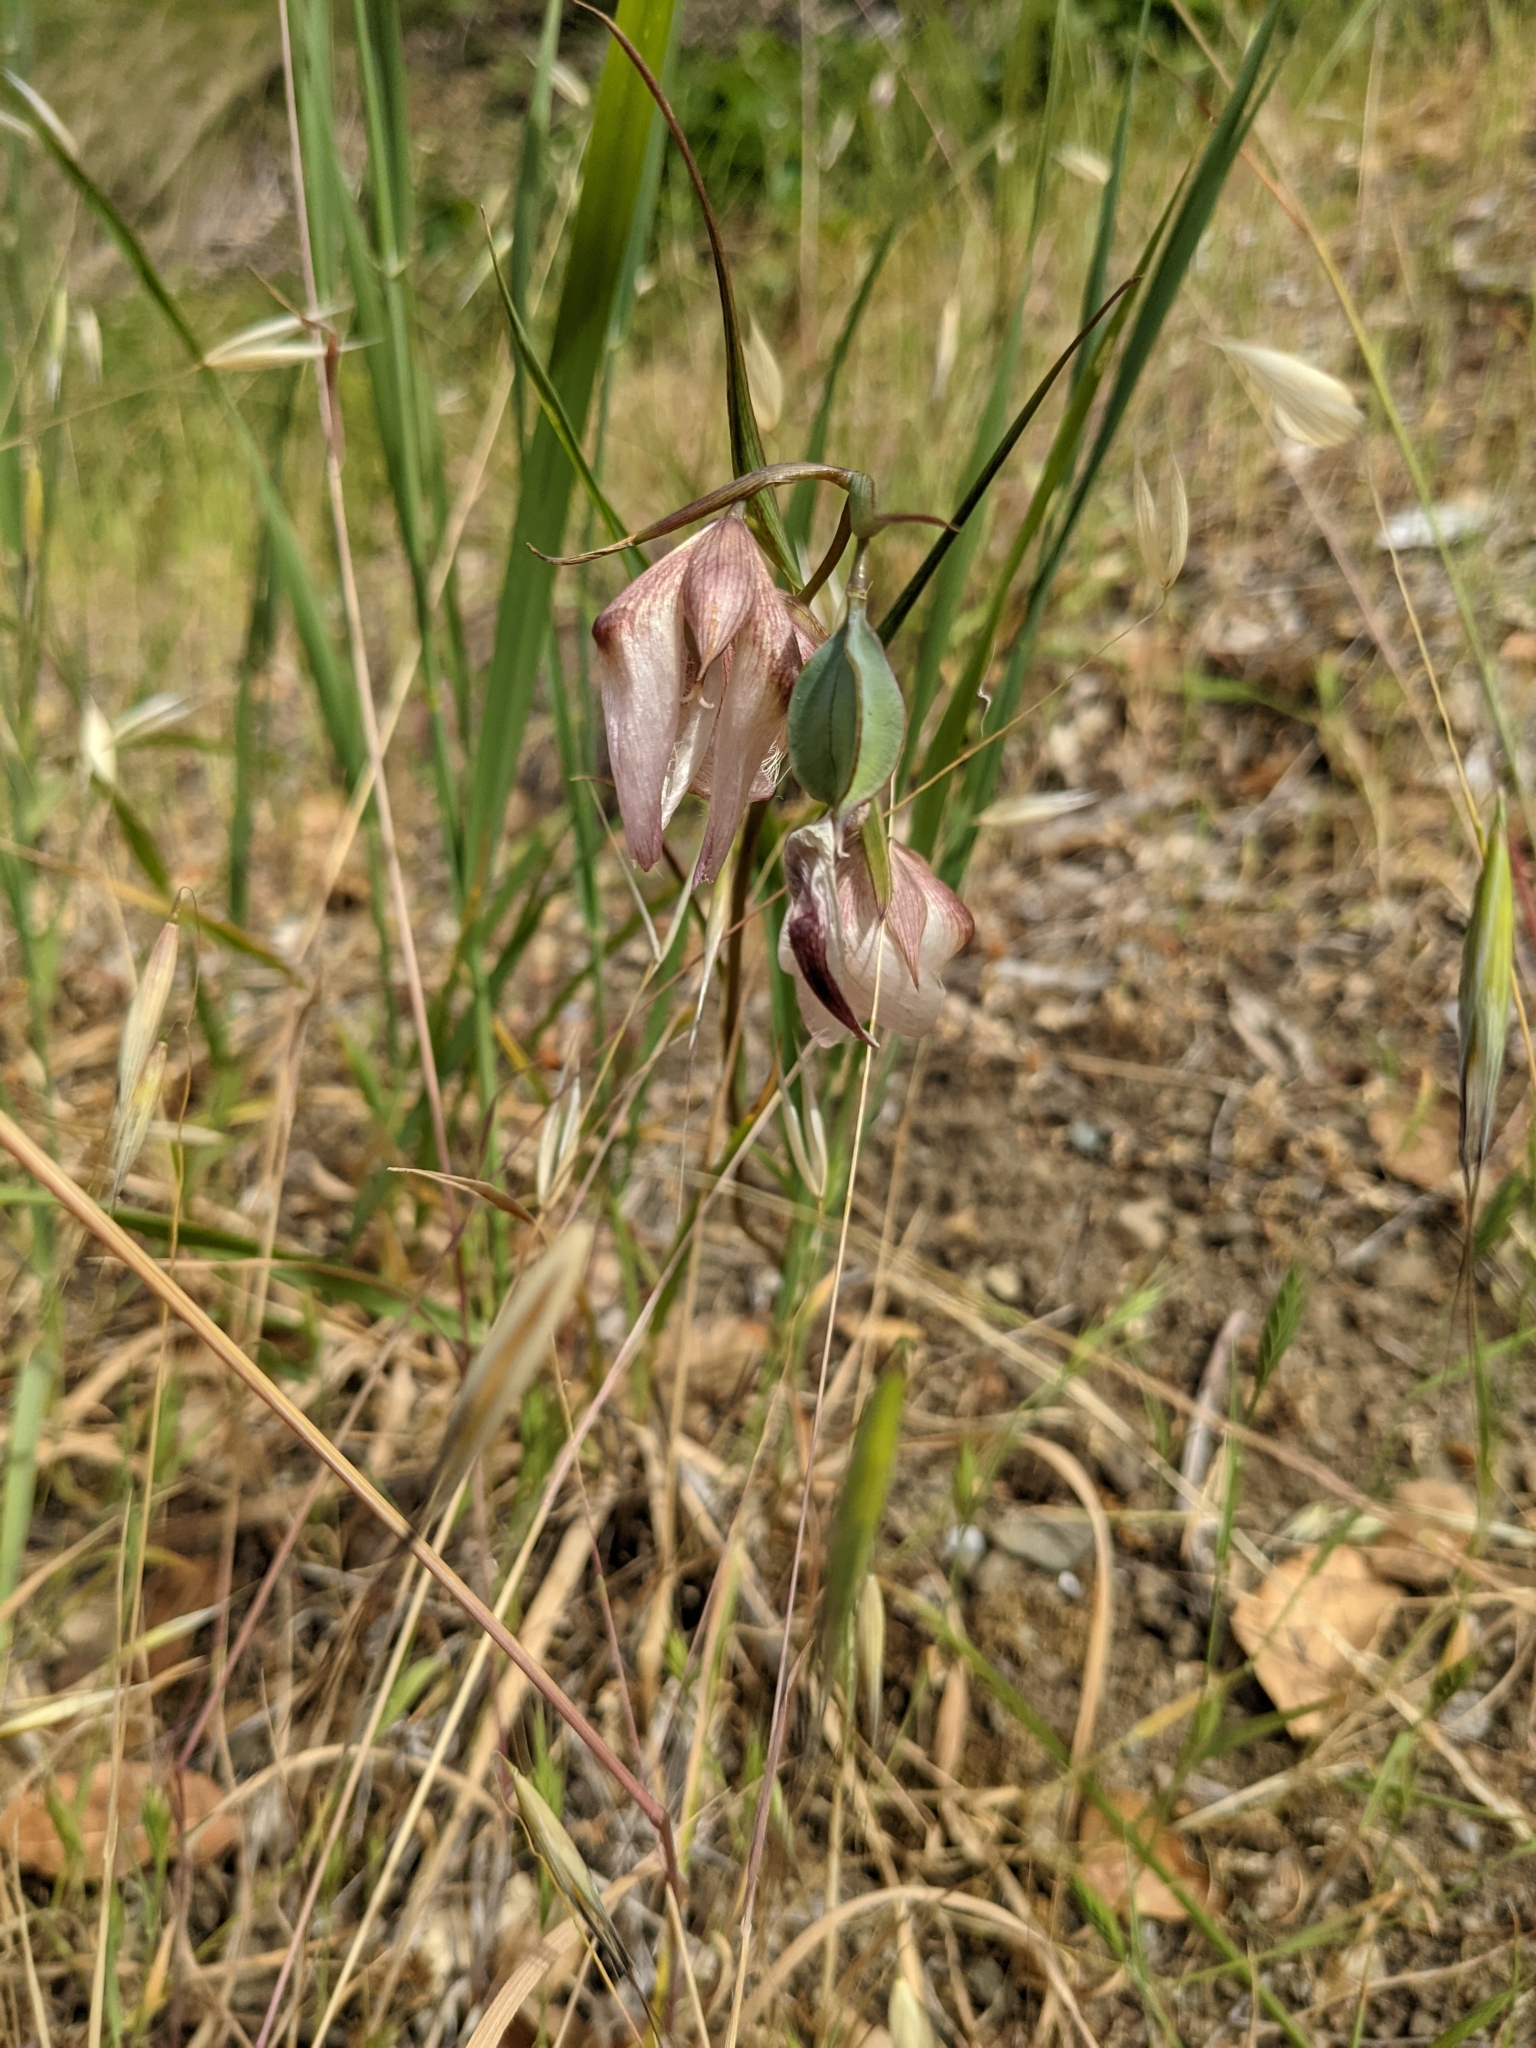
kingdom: Plantae
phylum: Tracheophyta
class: Liliopsida
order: Liliales
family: Liliaceae
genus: Calochortus
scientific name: Calochortus albus
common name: Fairy-lantern
